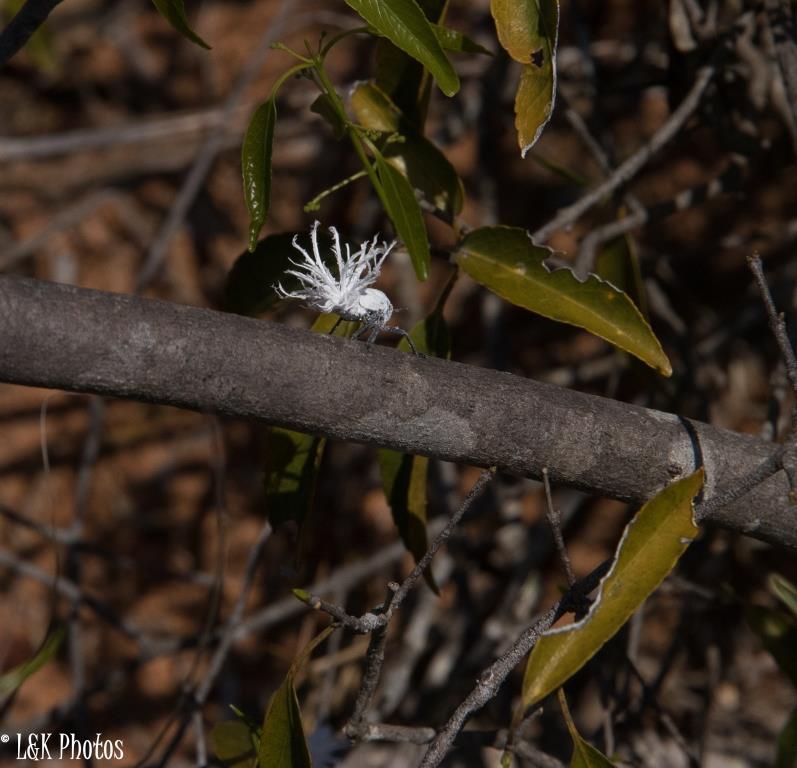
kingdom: Animalia
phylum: Arthropoda
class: Insecta
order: Hemiptera
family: Flatidae
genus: Flatida
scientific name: Flatida rosea
